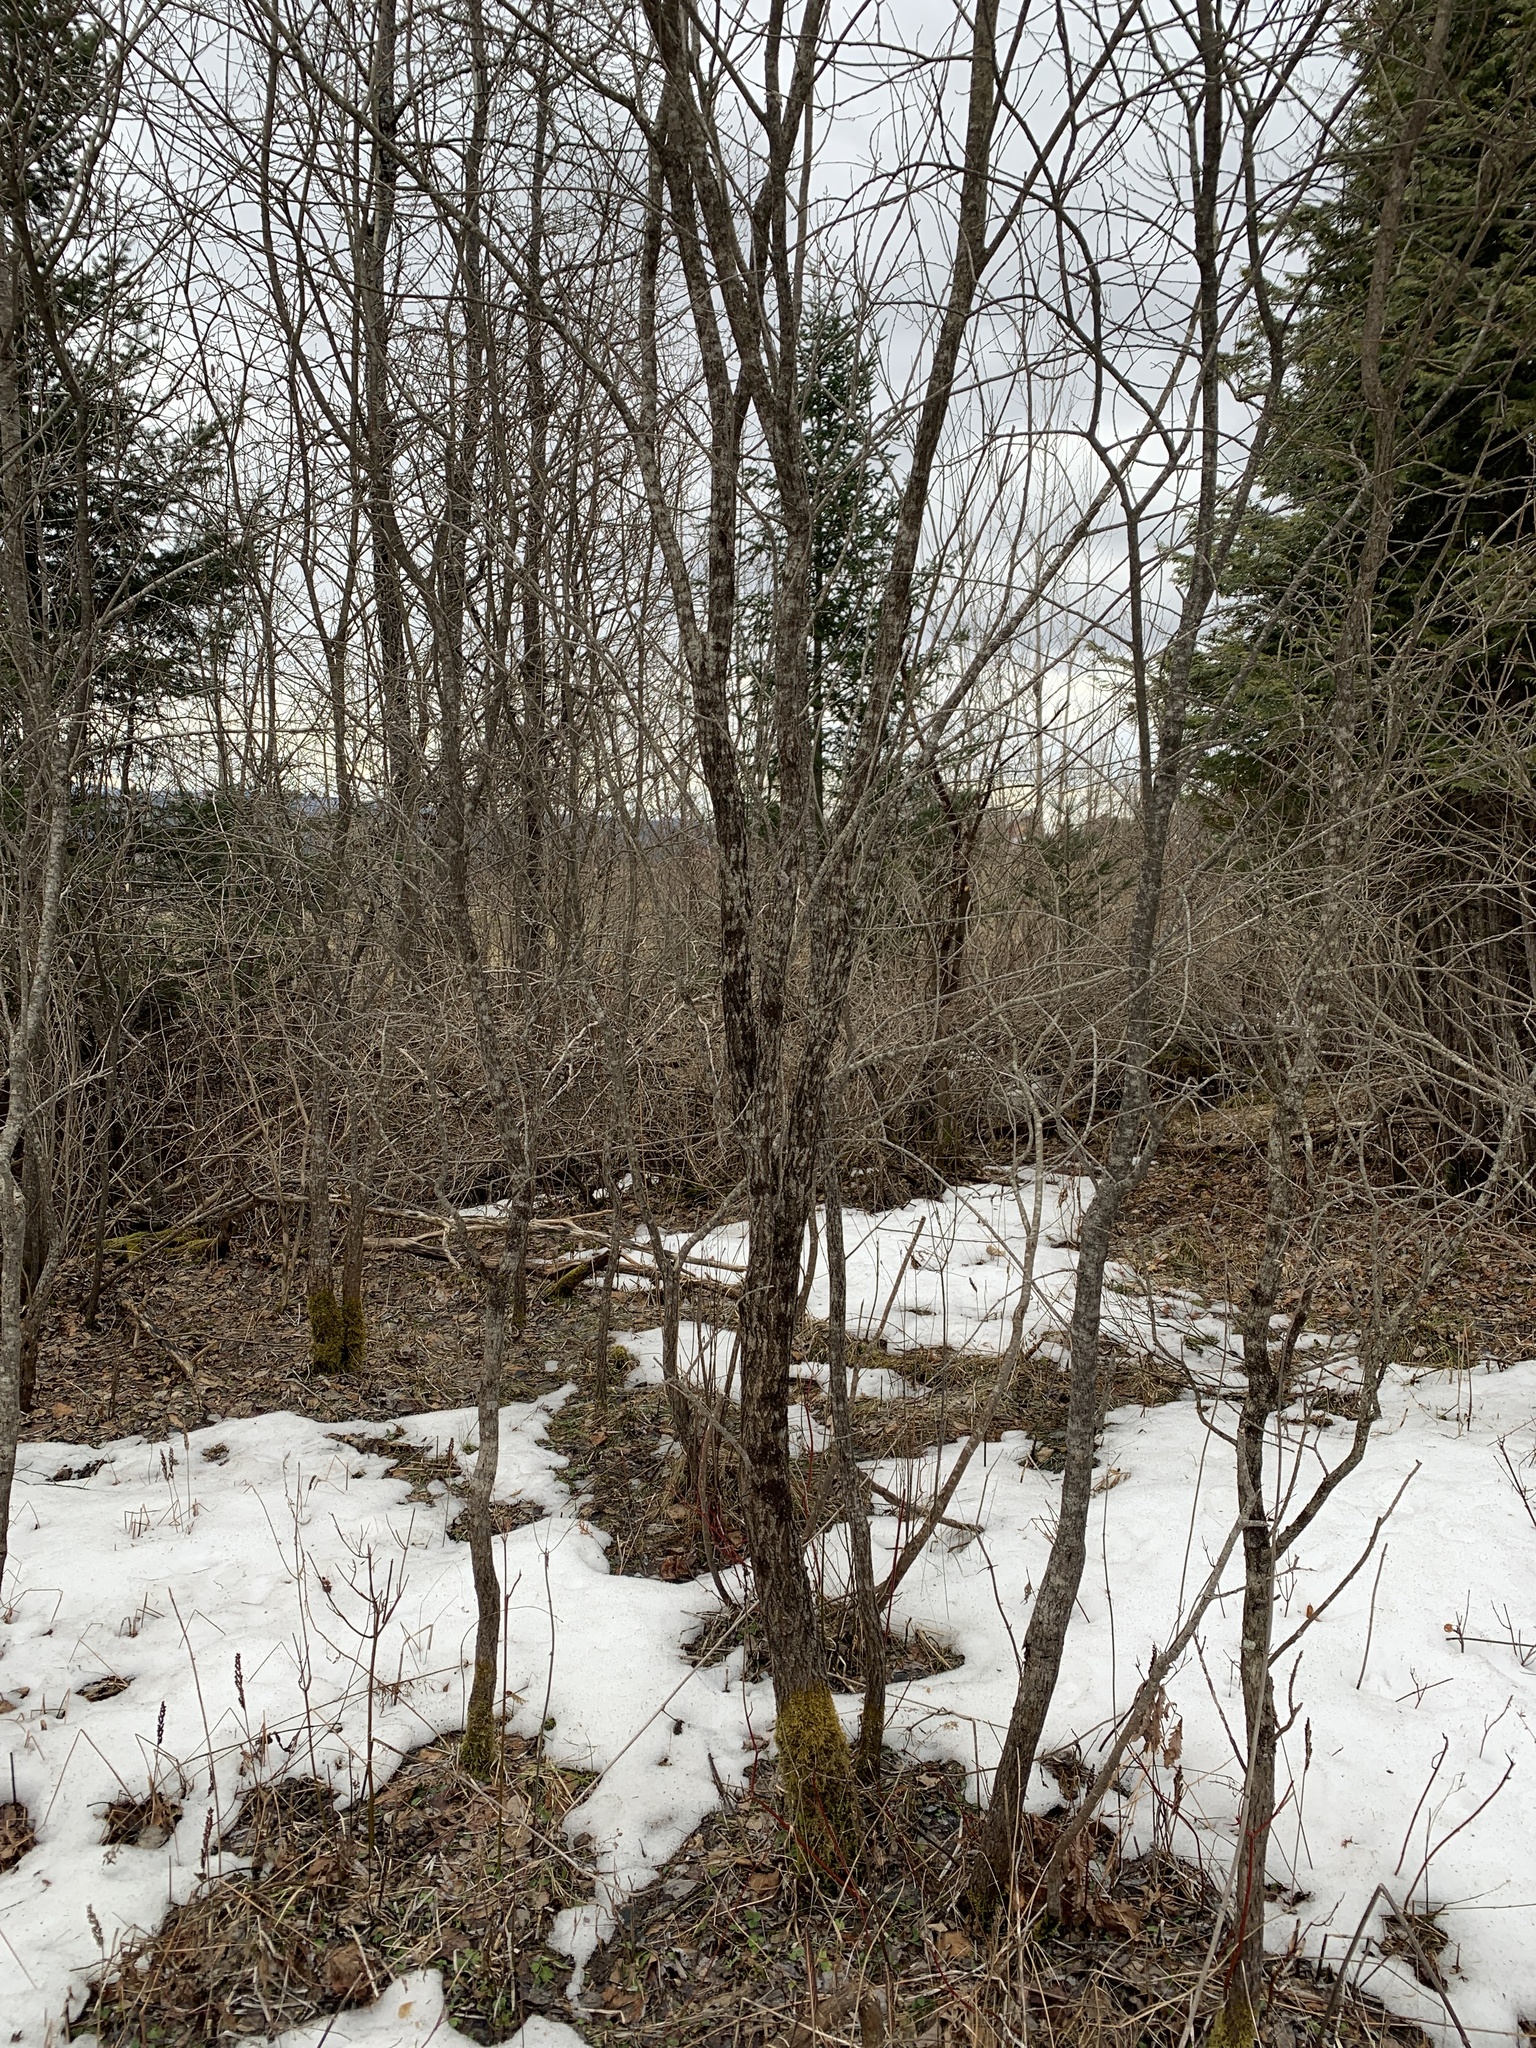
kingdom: Plantae
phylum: Tracheophyta
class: Magnoliopsida
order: Malpighiales
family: Salicaceae
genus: Salix
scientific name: Salix bebbiana
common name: Bebb's willow
